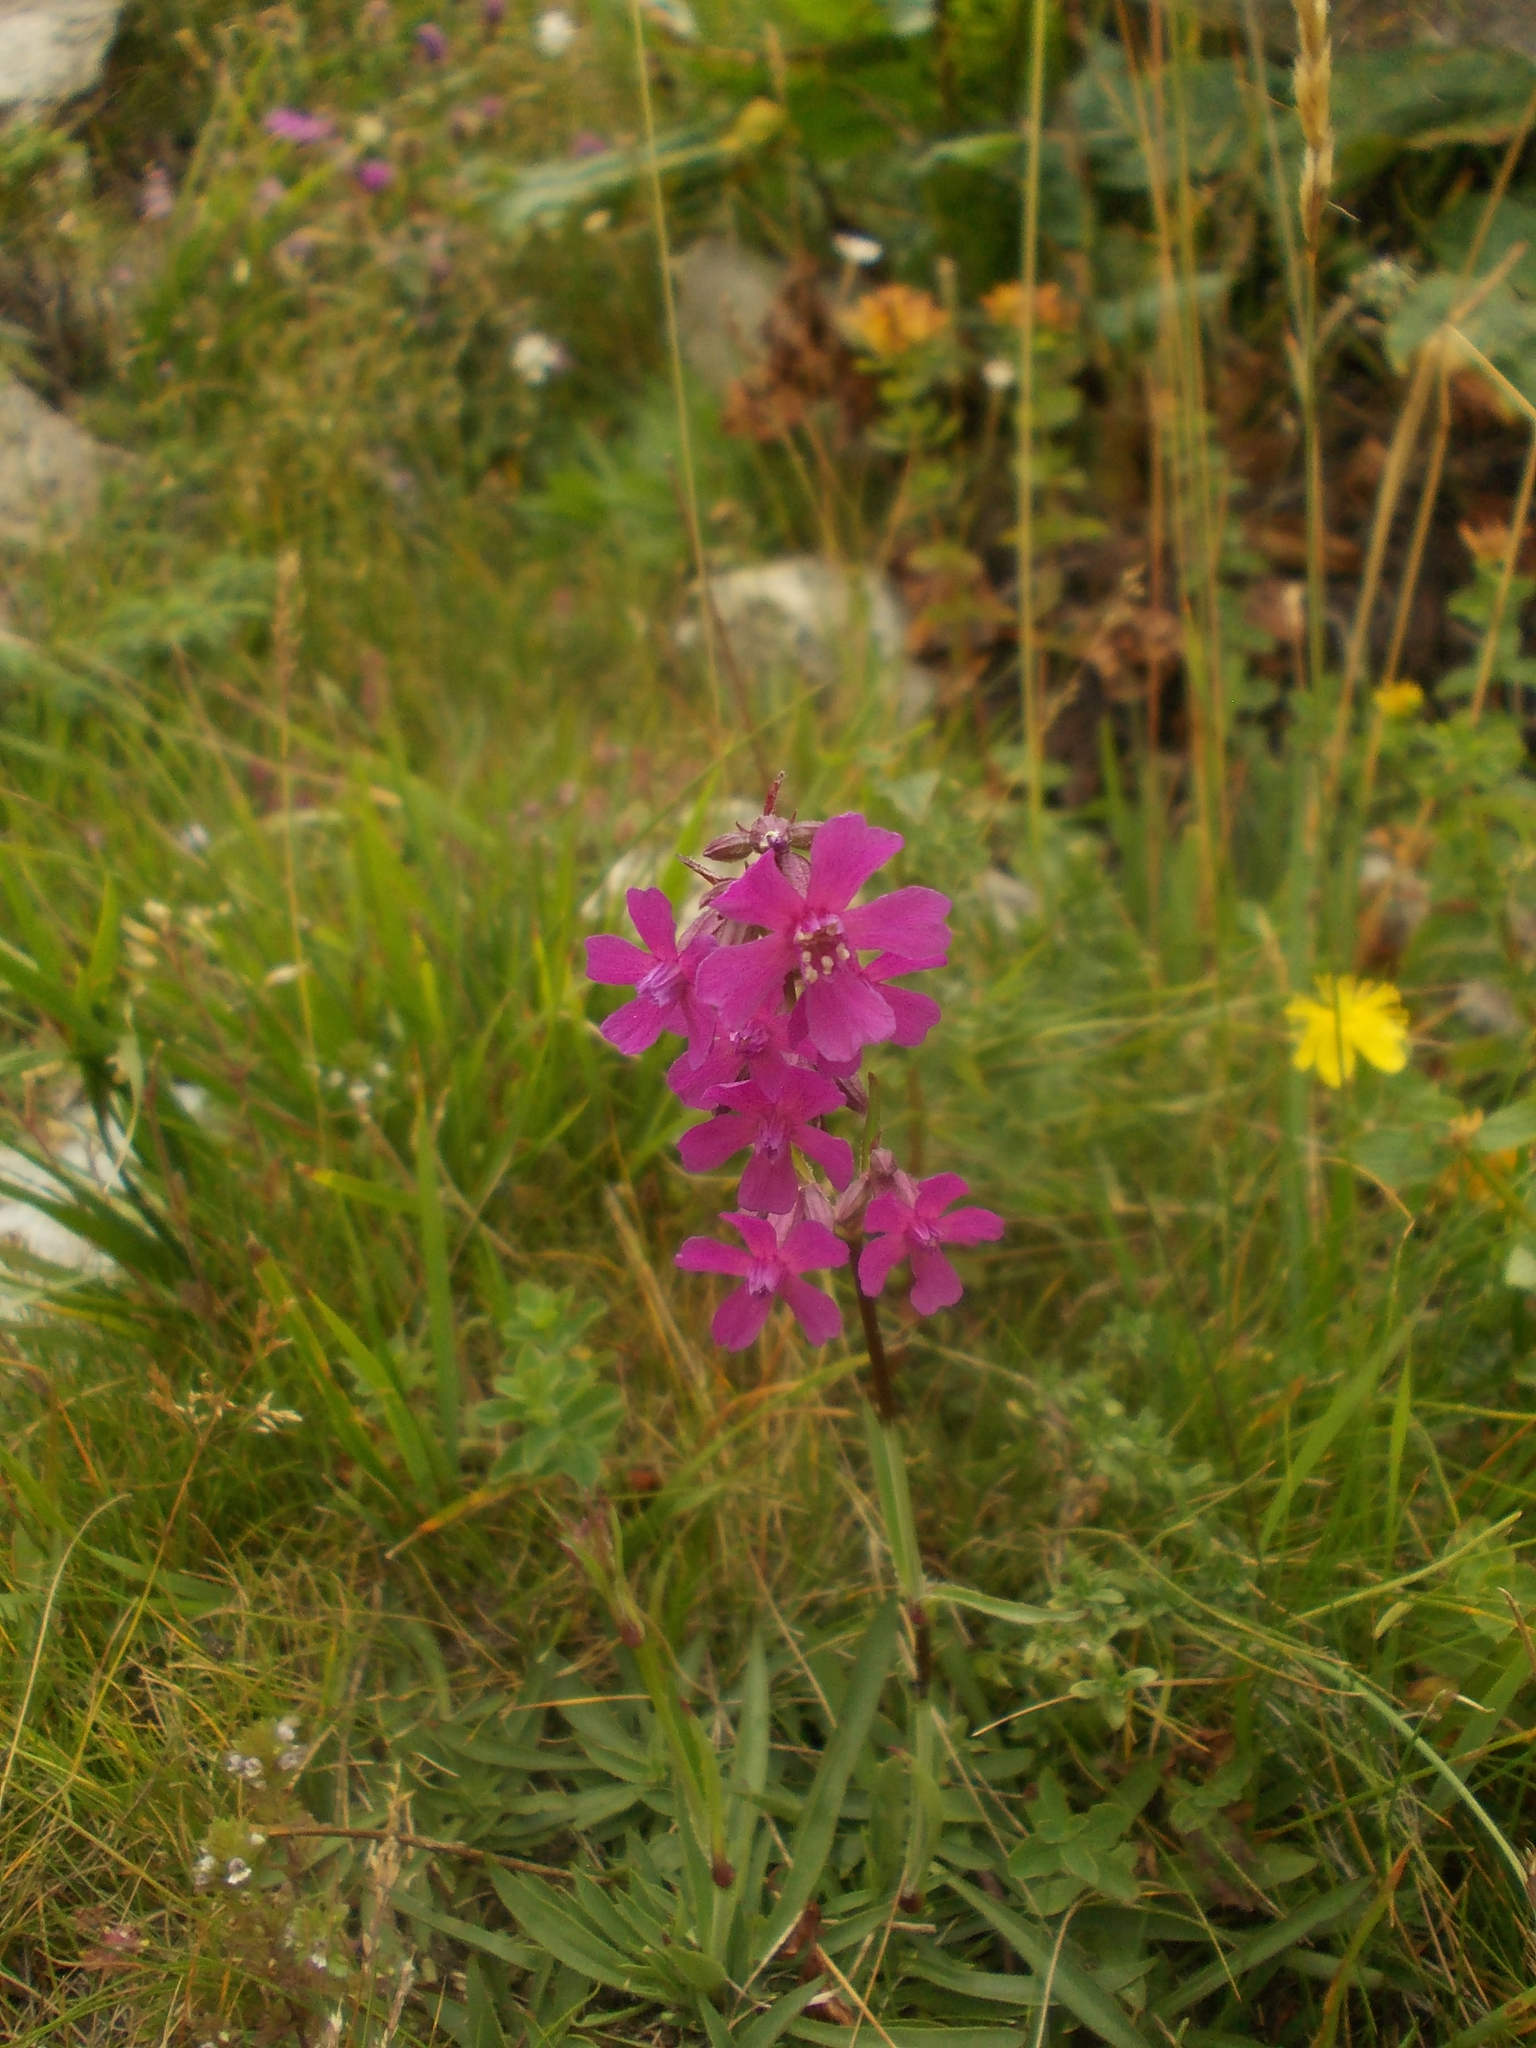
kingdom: Plantae
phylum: Tracheophyta
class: Magnoliopsida
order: Caryophyllales
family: Caryophyllaceae
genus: Viscaria
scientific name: Viscaria vulgaris
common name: Clammy campion
